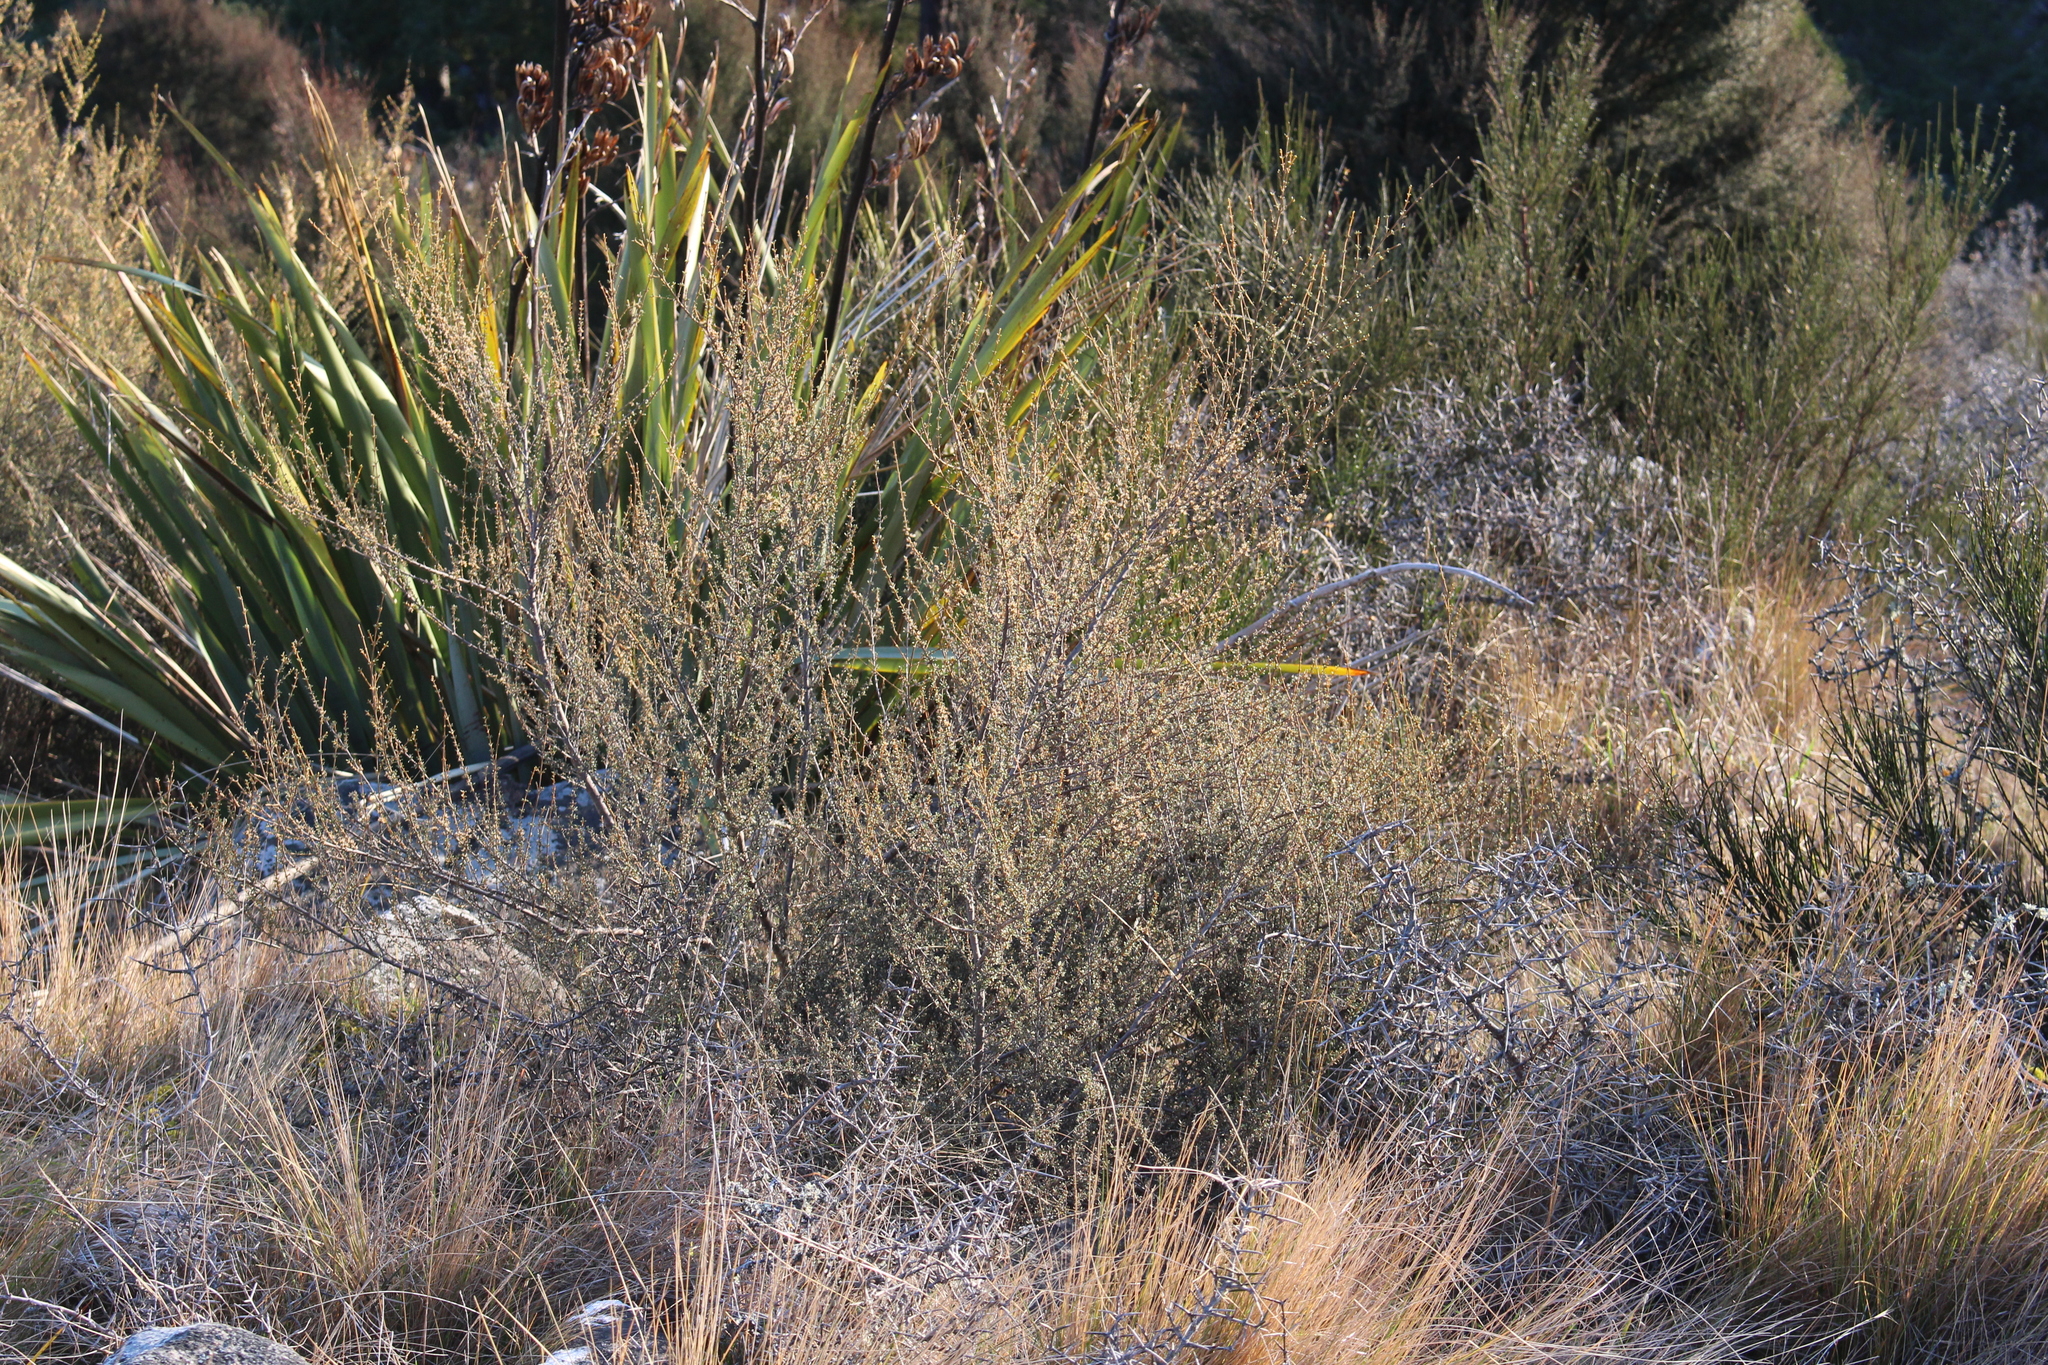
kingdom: Plantae
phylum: Tracheophyta
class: Magnoliopsida
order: Asterales
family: Asteraceae
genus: Olearia
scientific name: Olearia solandri
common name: Coastal daisybush
